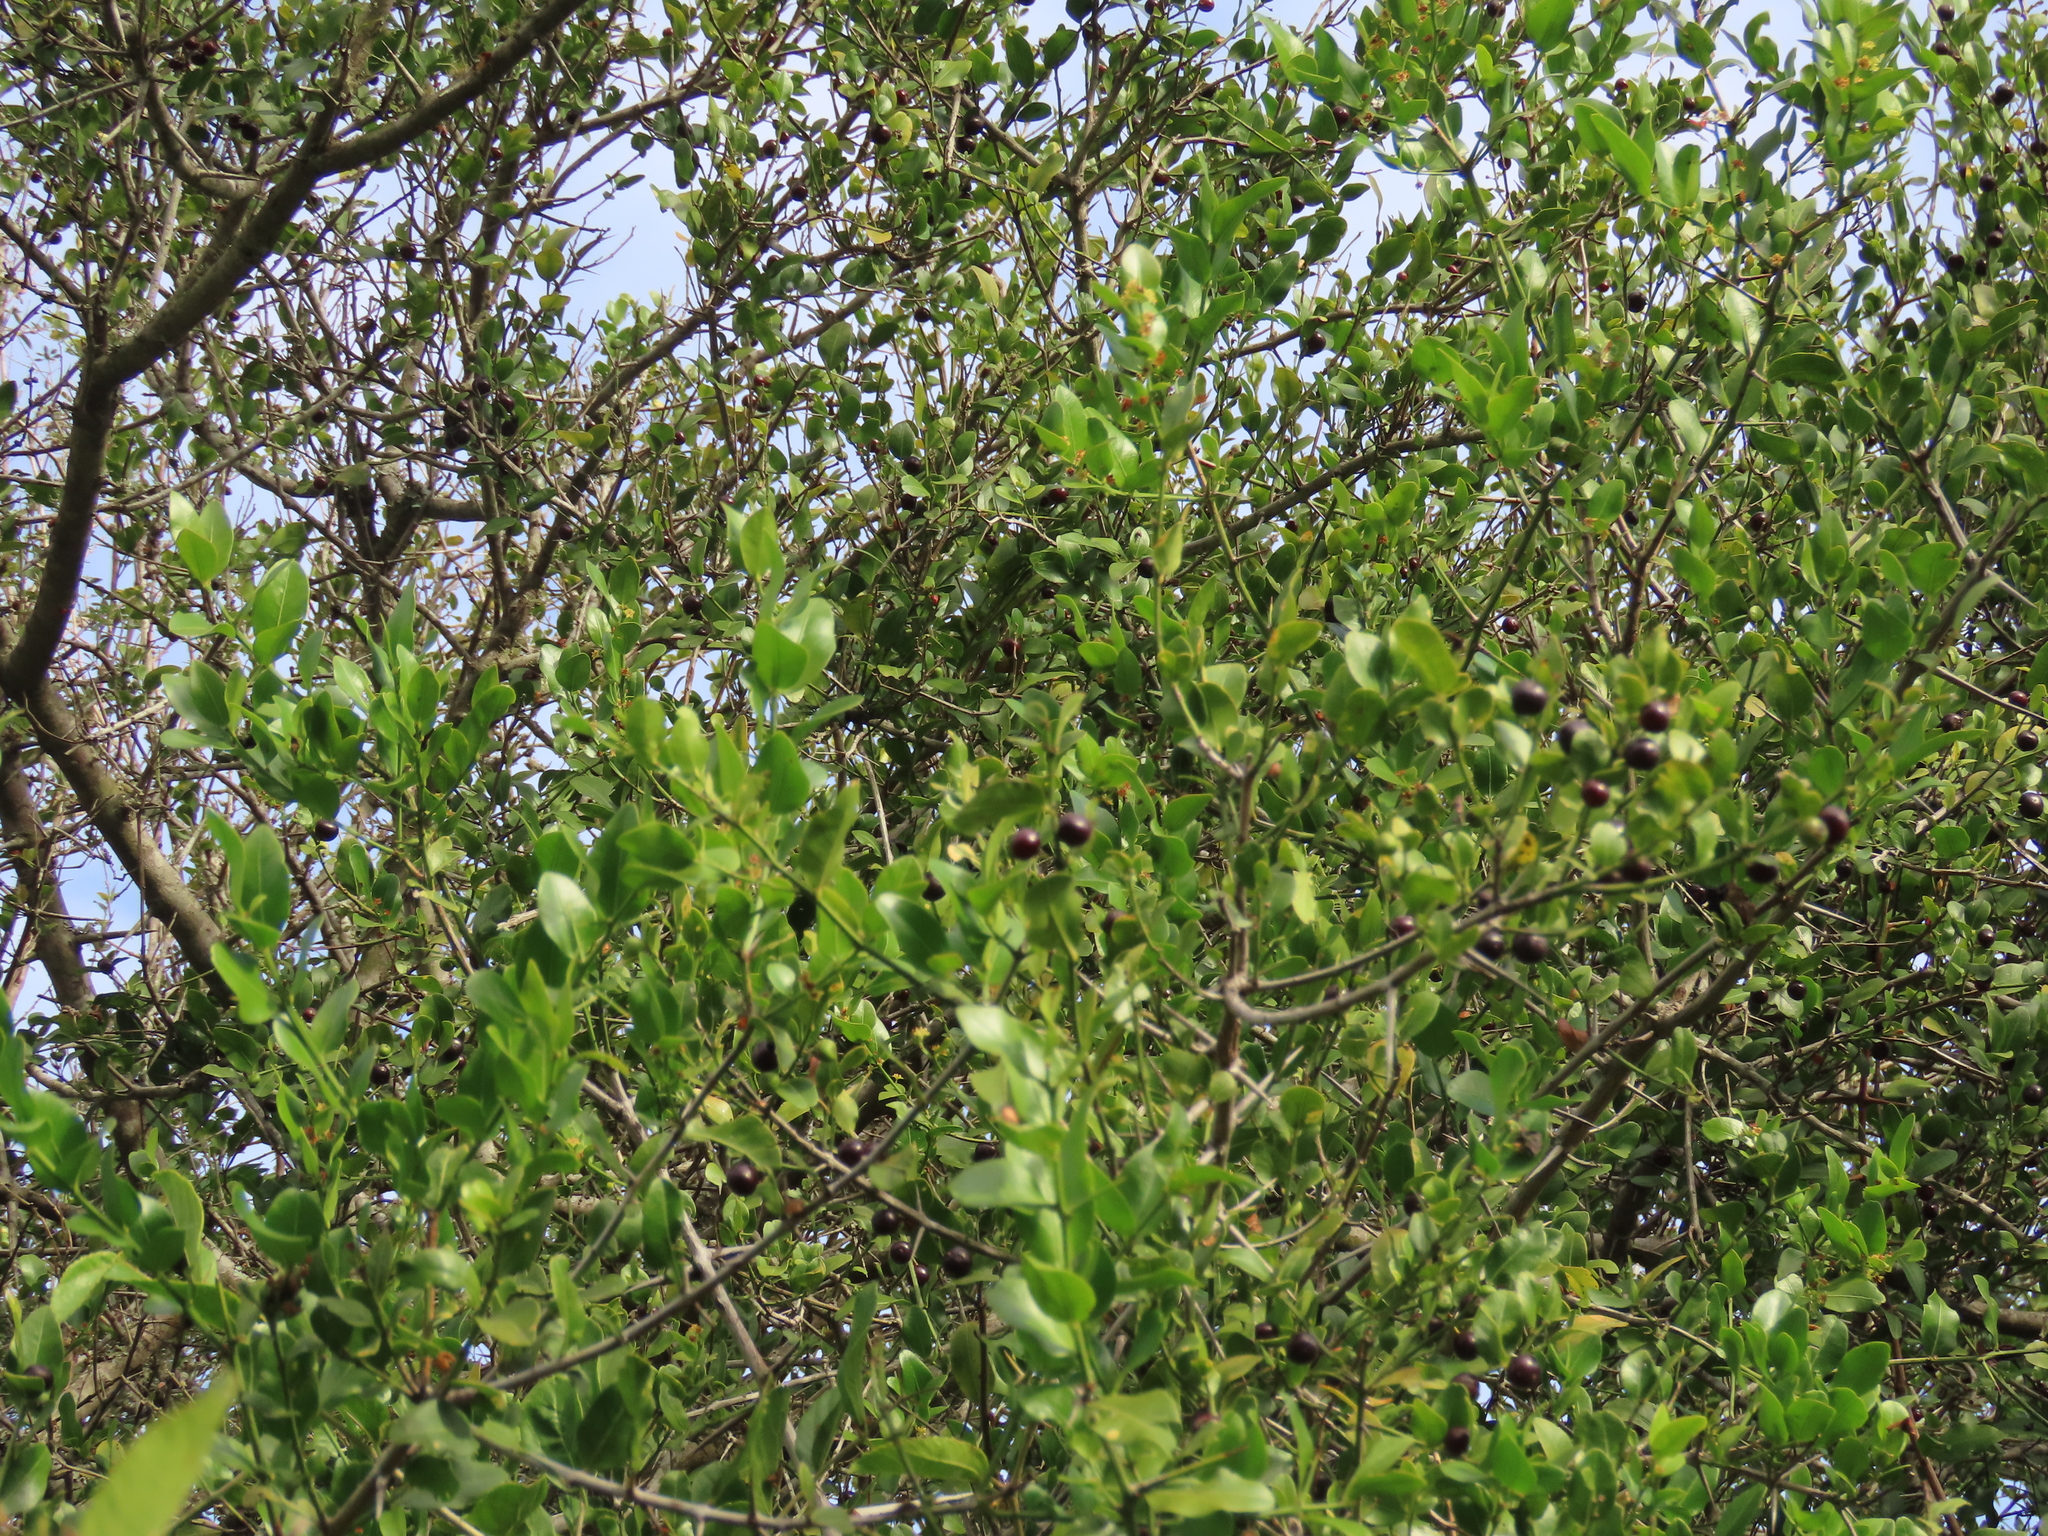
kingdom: Plantae
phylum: Tracheophyta
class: Magnoliopsida
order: Rosales
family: Rhamnaceae
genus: Scutia
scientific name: Scutia buxifolia
